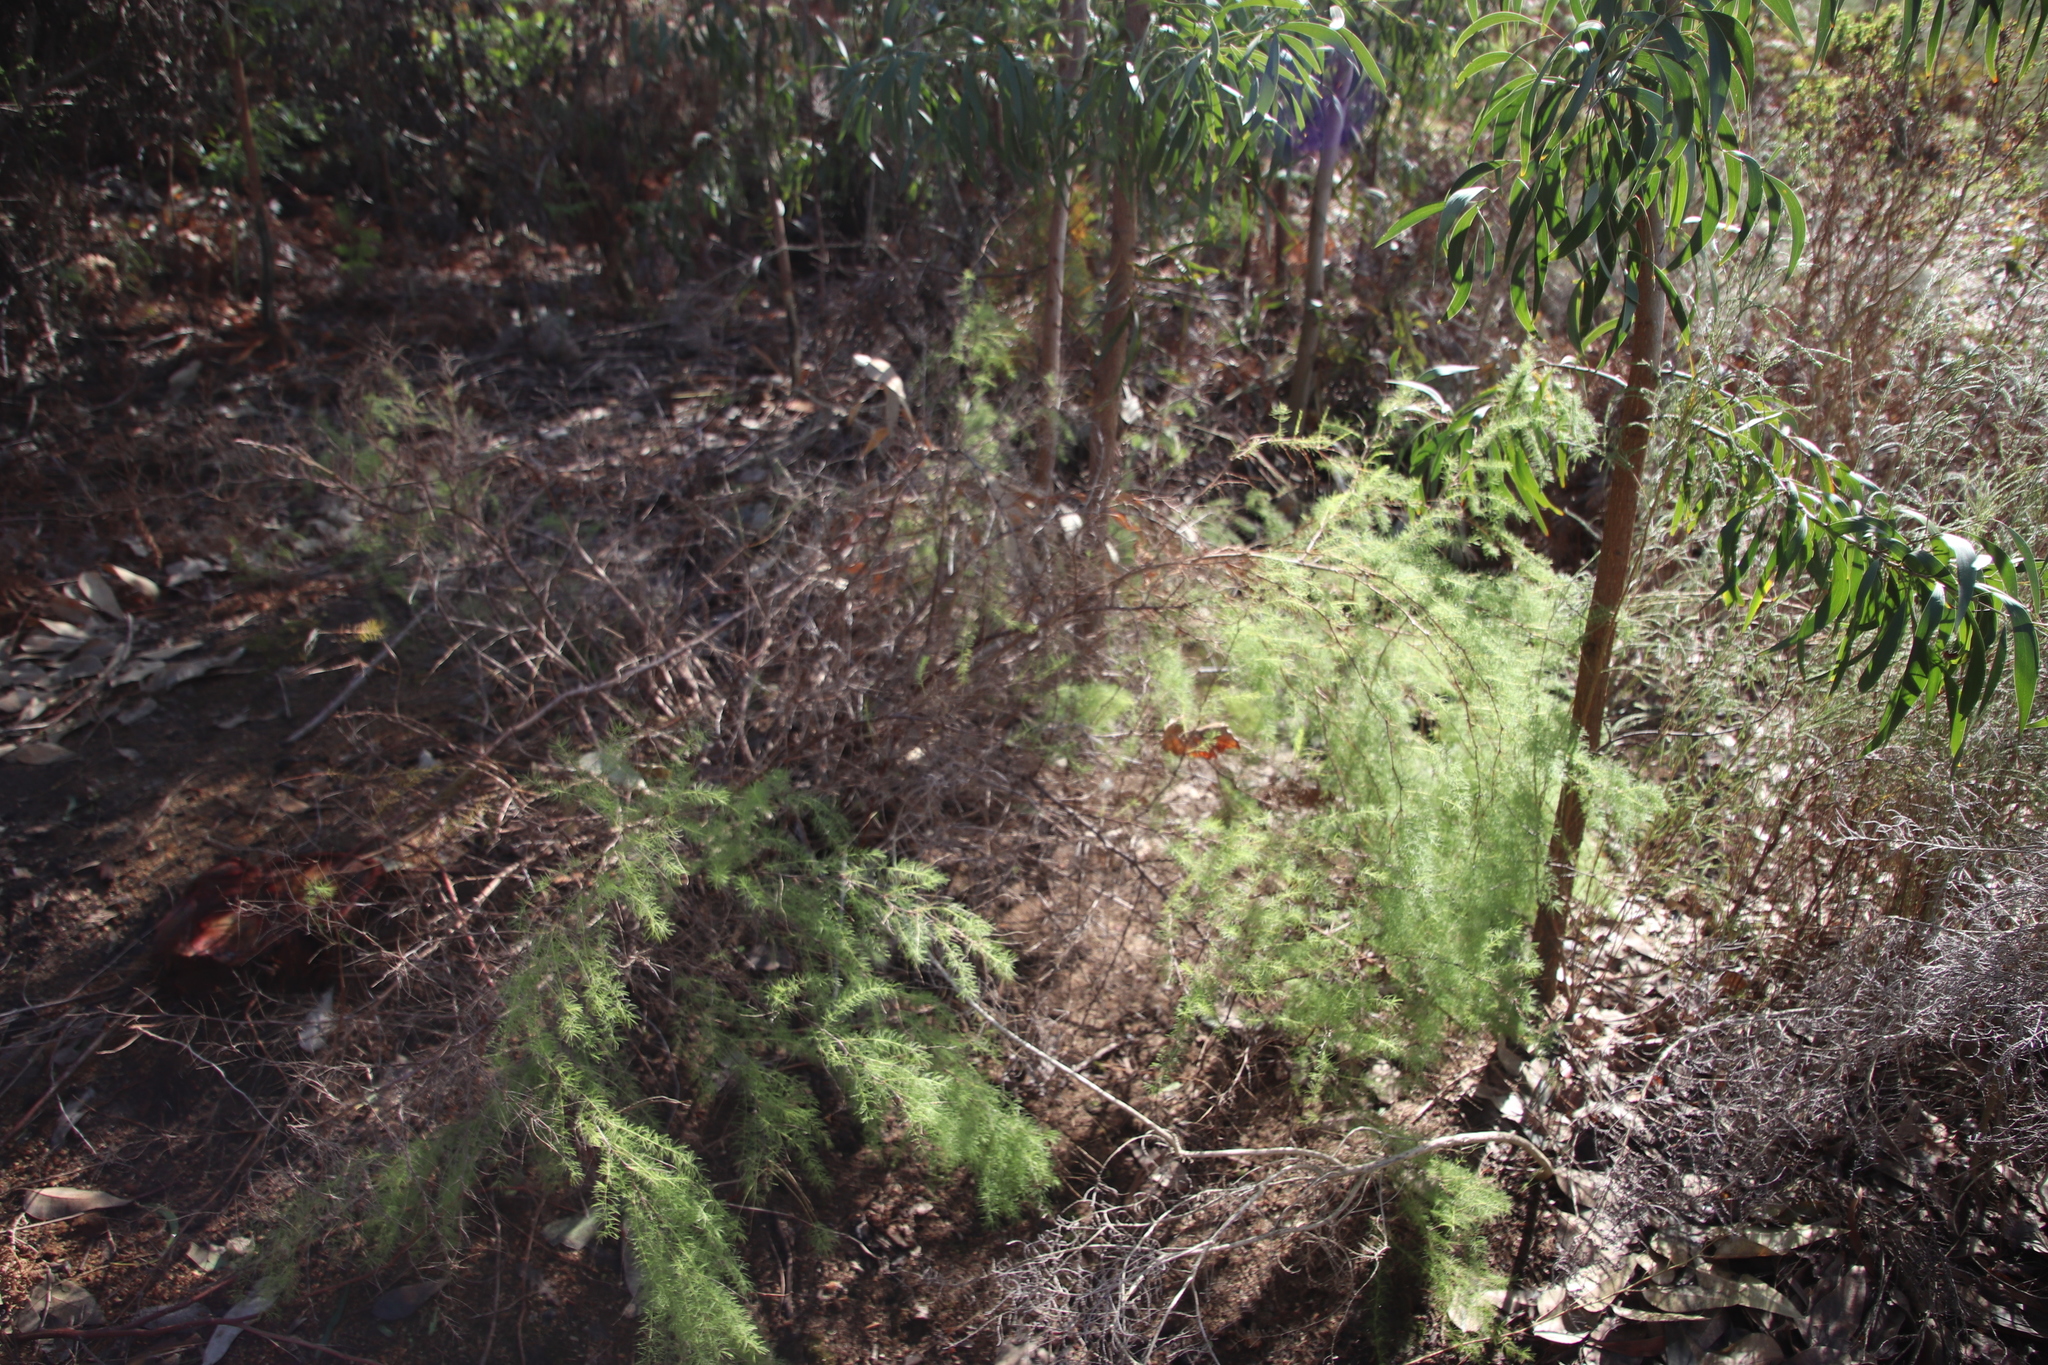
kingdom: Plantae
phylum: Tracheophyta
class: Liliopsida
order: Asparagales
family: Asparagaceae
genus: Asparagus
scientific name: Asparagus rubicundus
